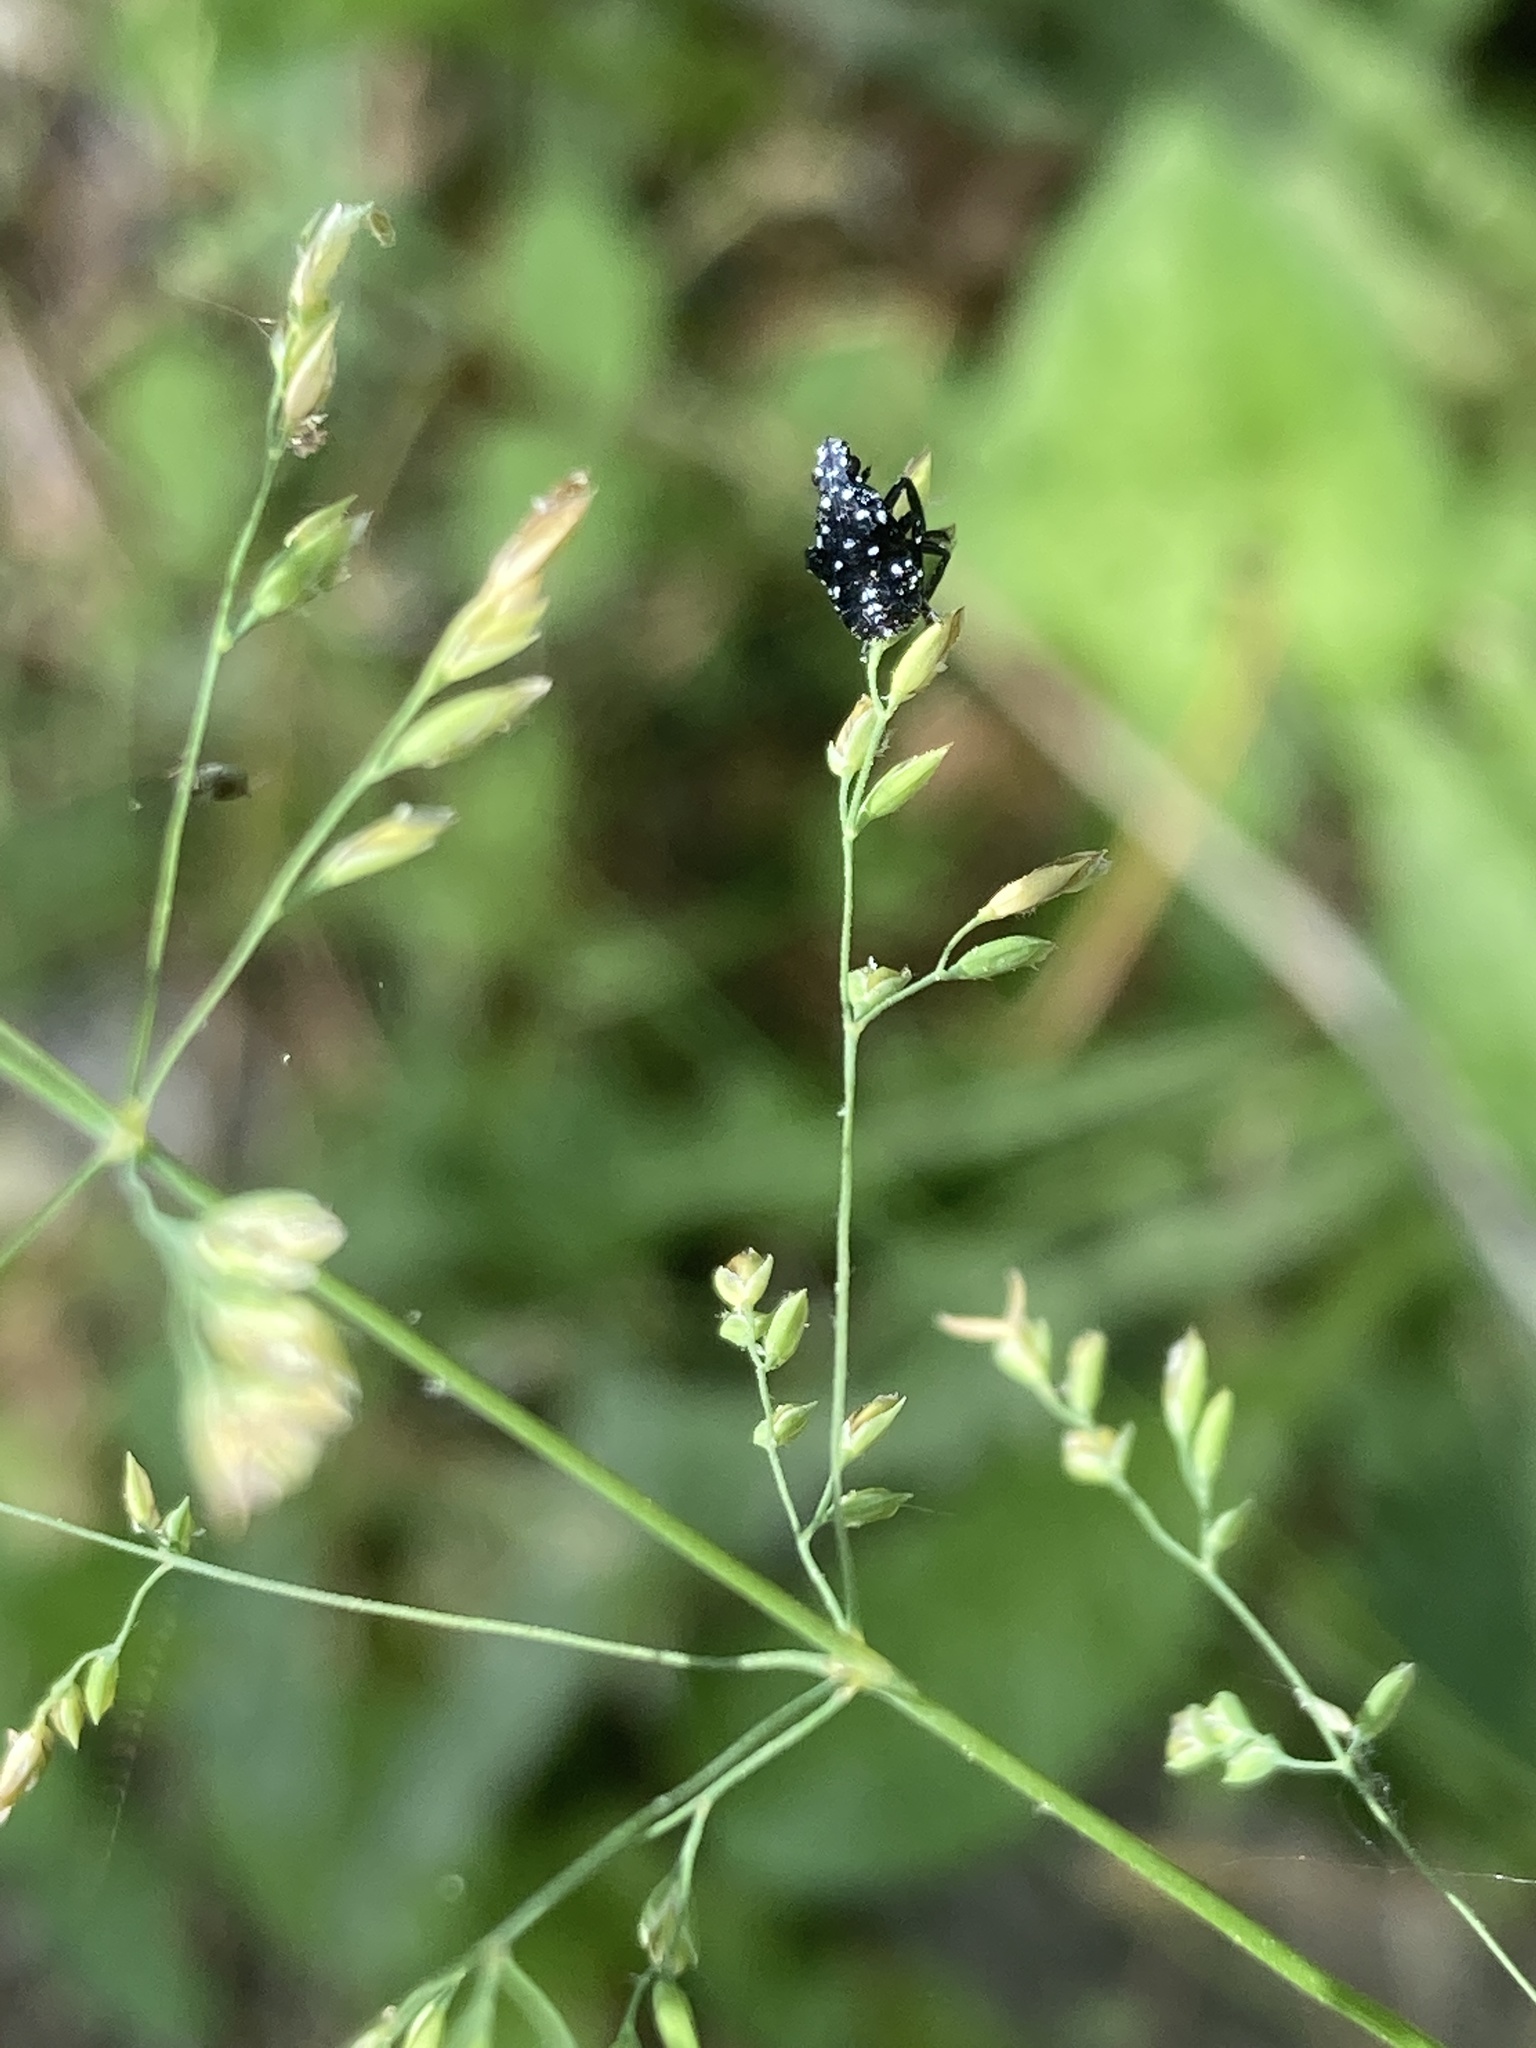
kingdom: Animalia
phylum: Arthropoda
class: Insecta
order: Hemiptera
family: Fulgoridae
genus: Lycorma
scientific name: Lycorma delicatula
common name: Spotted lanternfly
